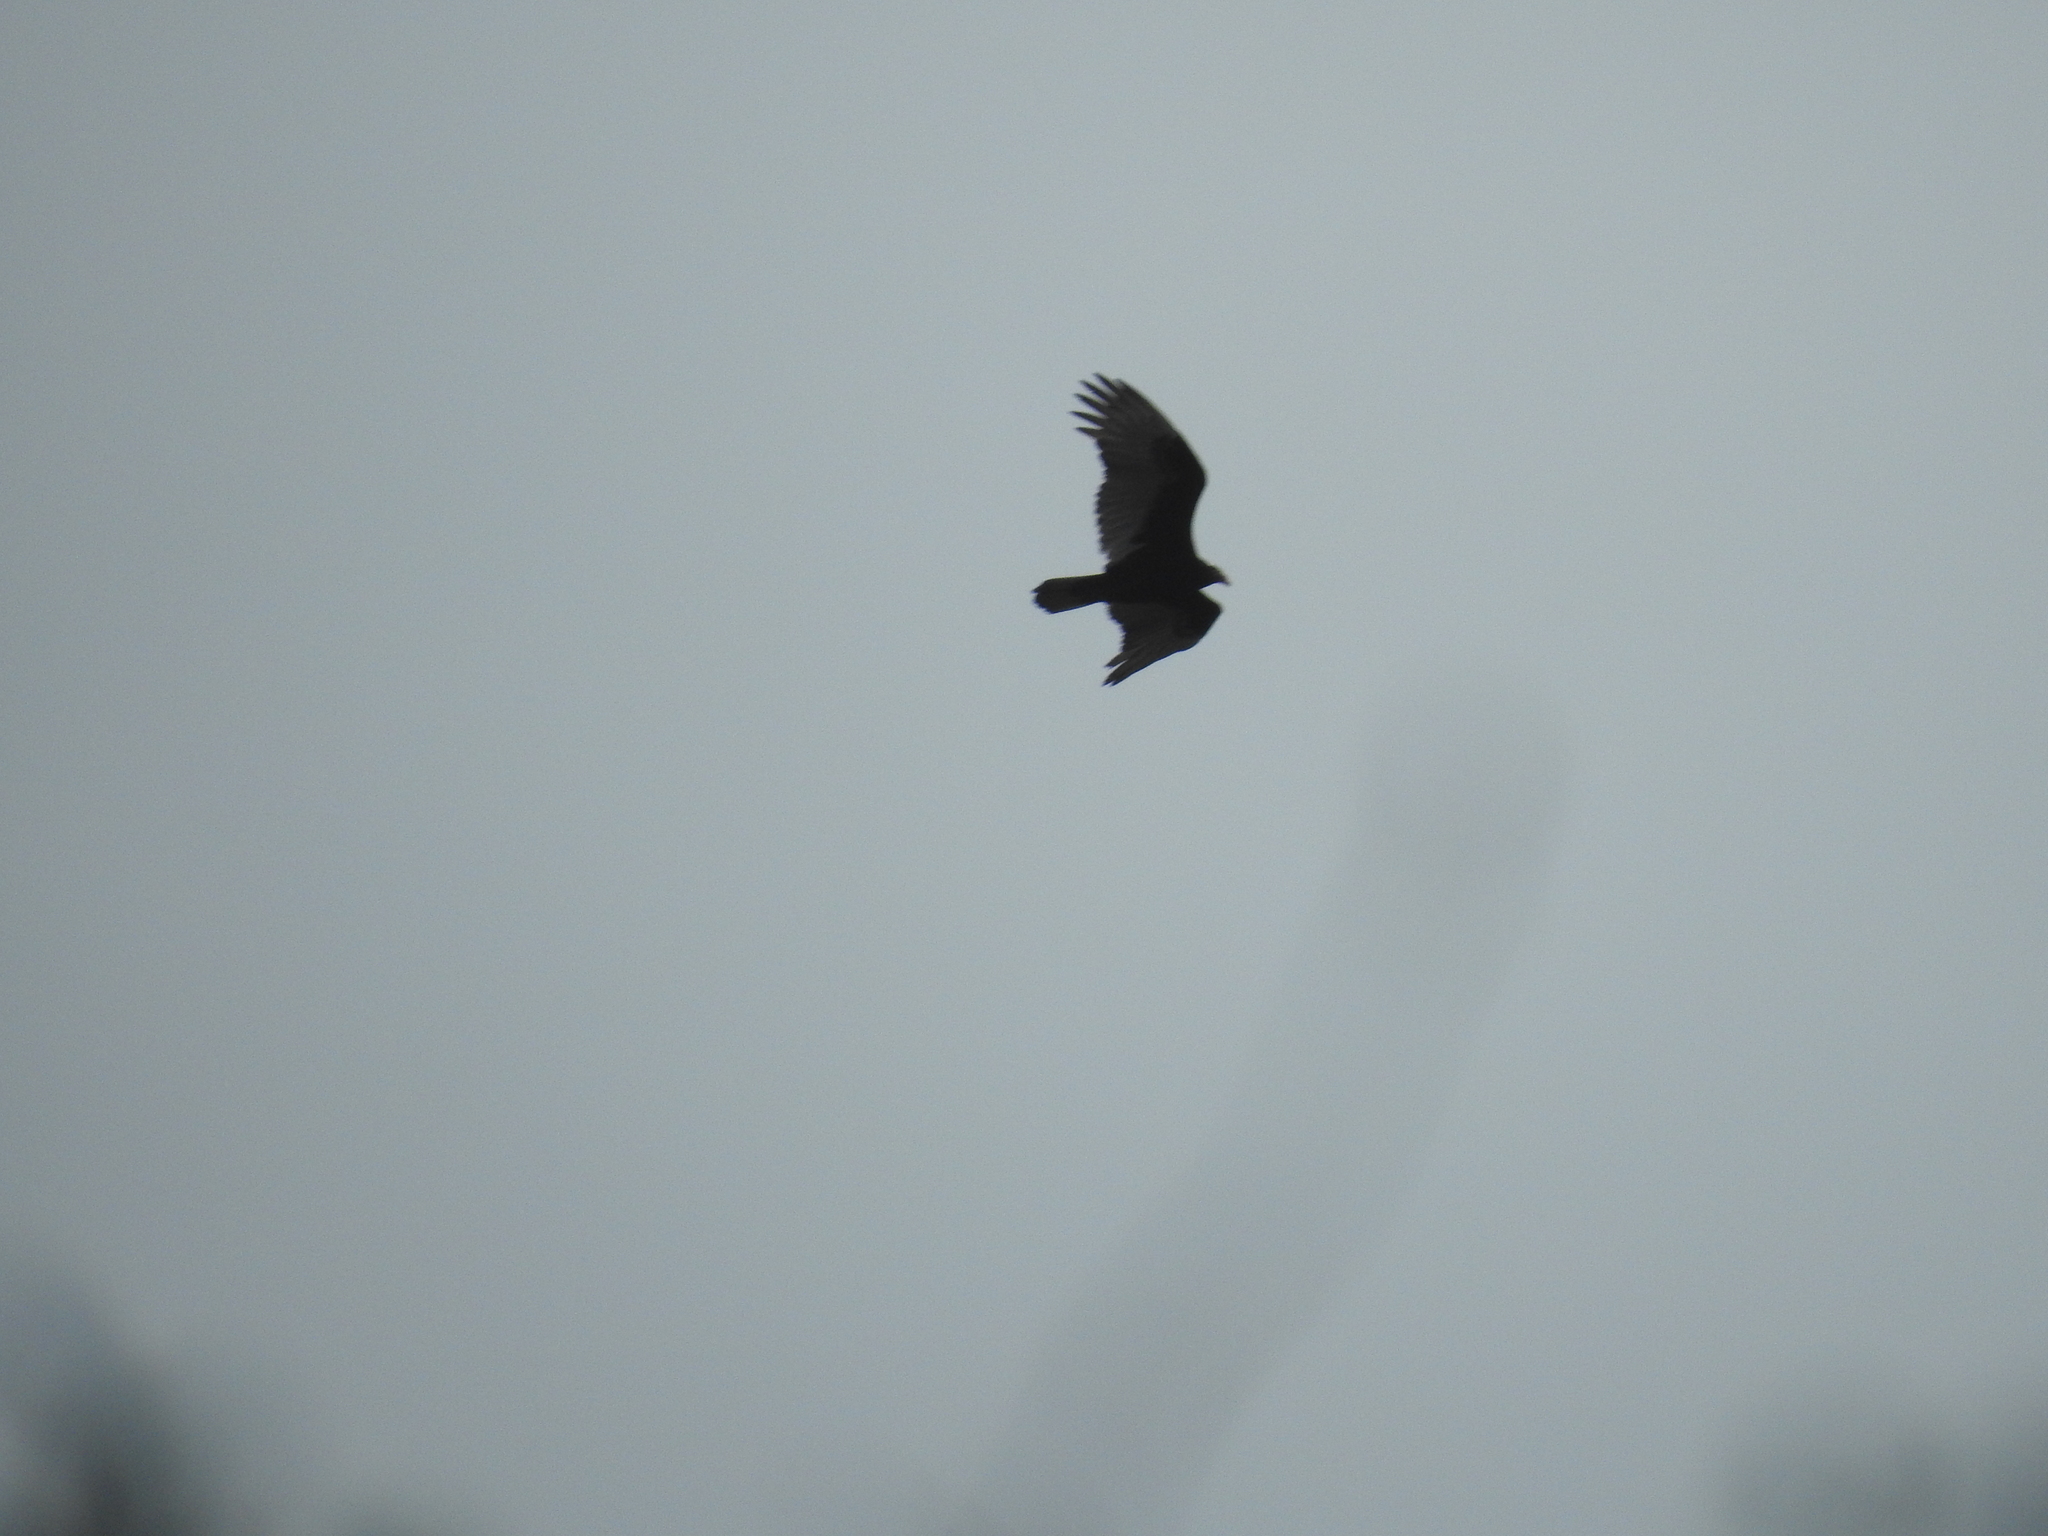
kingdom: Animalia
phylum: Chordata
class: Aves
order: Accipitriformes
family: Cathartidae
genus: Cathartes
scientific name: Cathartes aura
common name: Turkey vulture
